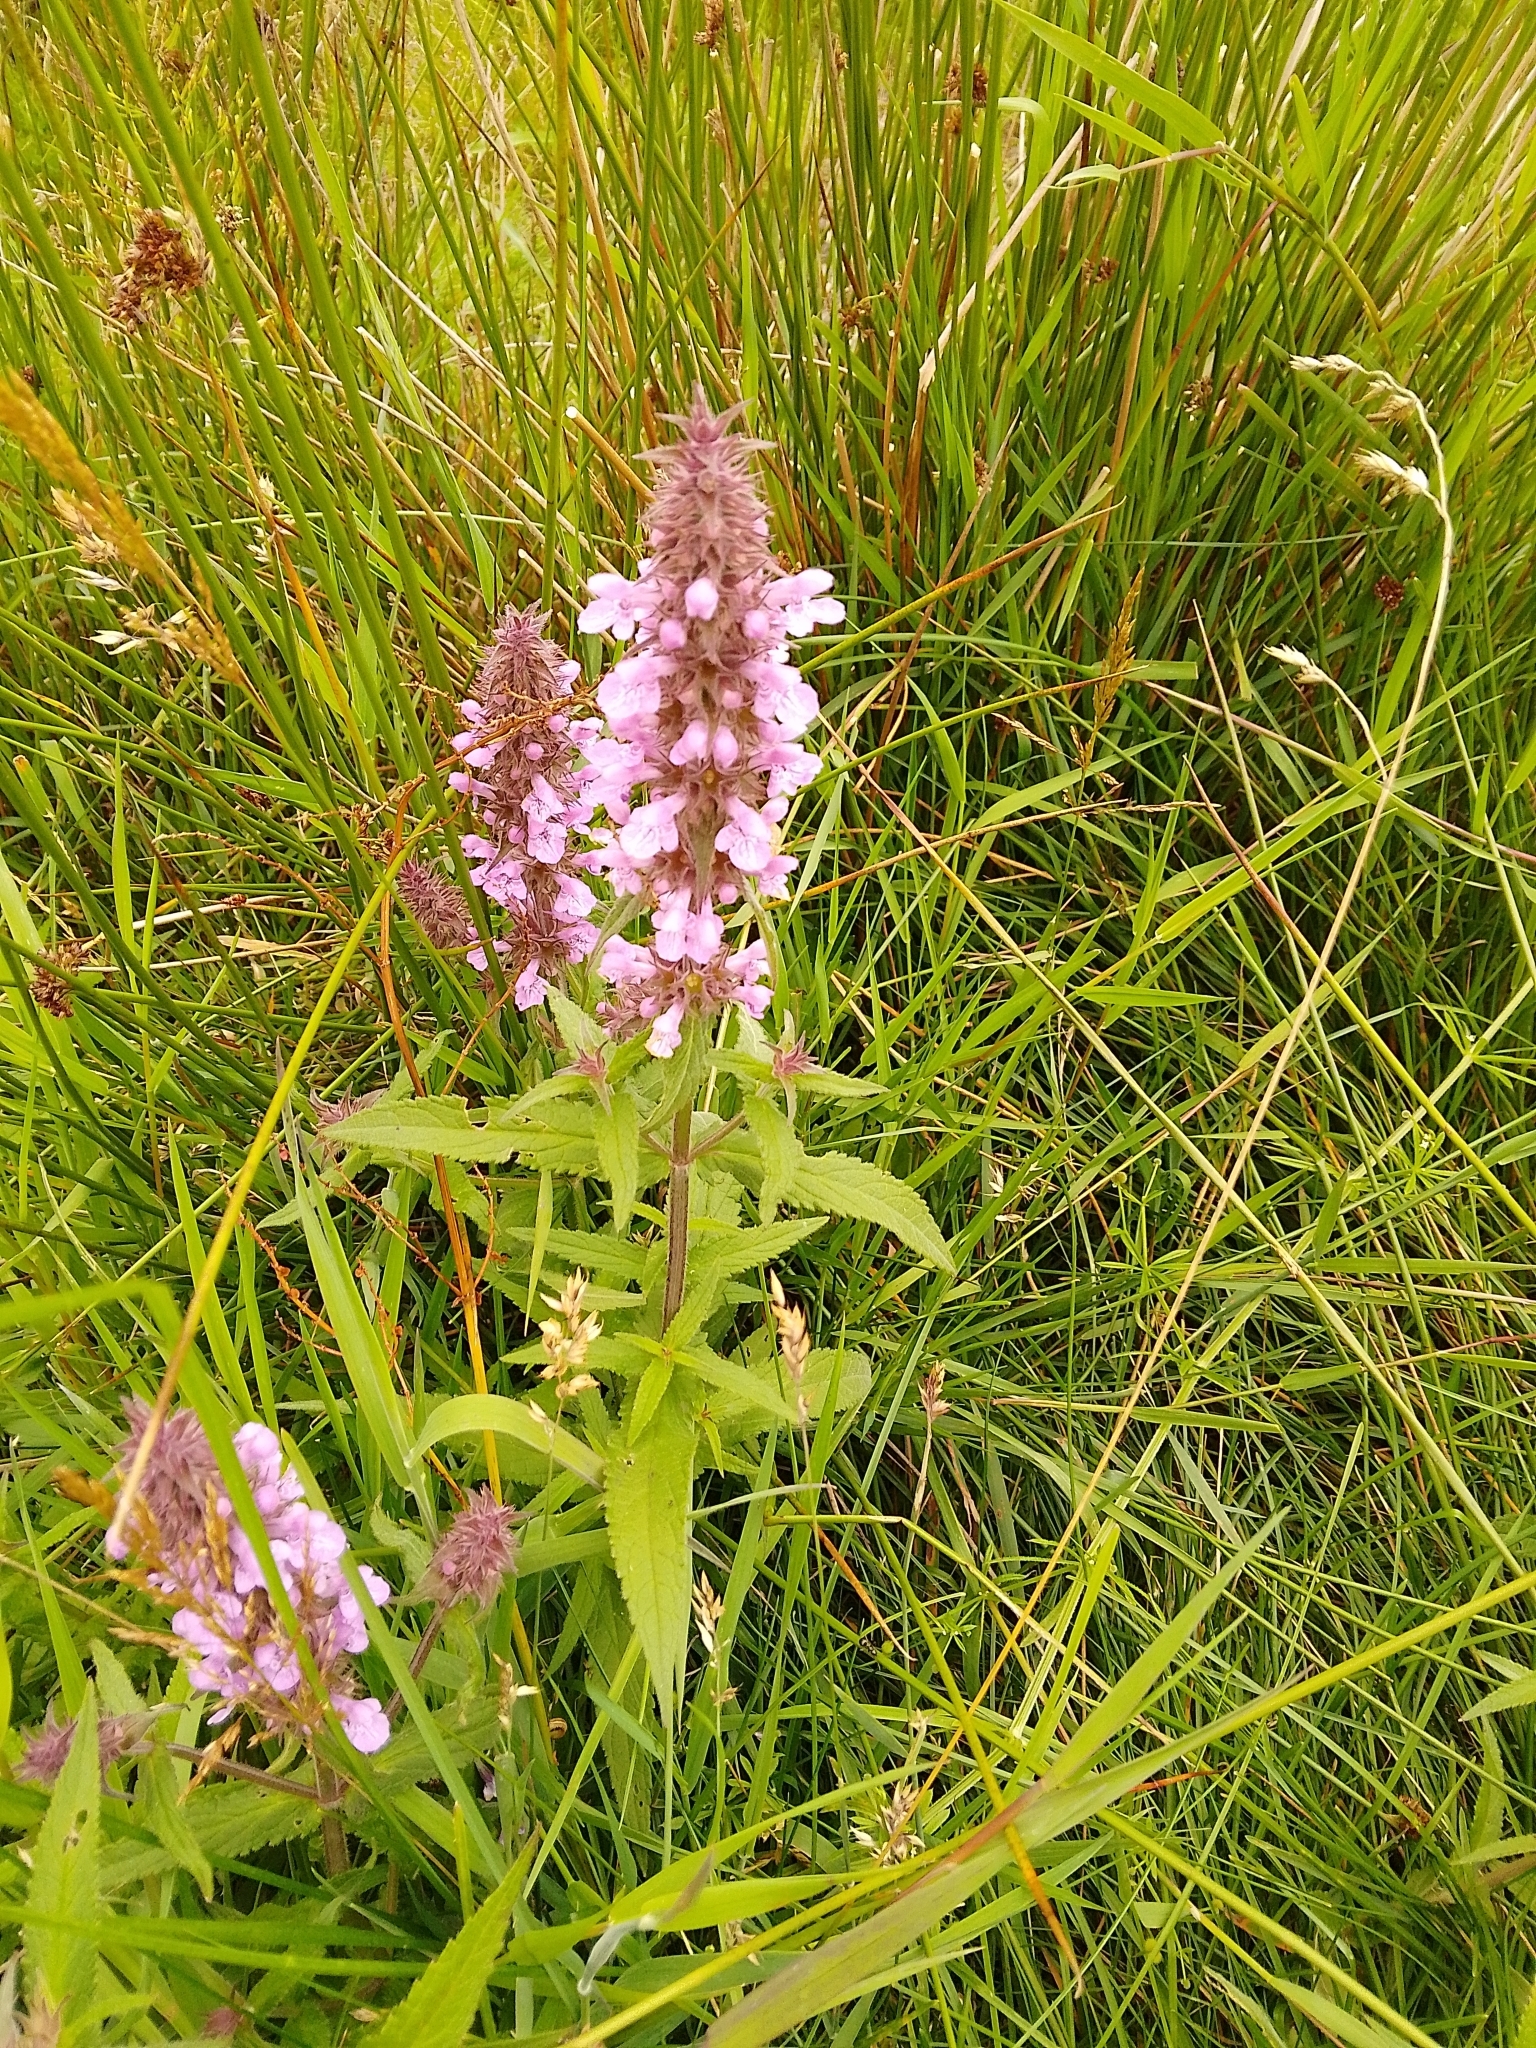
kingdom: Plantae
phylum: Tracheophyta
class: Magnoliopsida
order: Lamiales
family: Lamiaceae
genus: Stachys
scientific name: Stachys palustris
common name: Marsh woundwort
